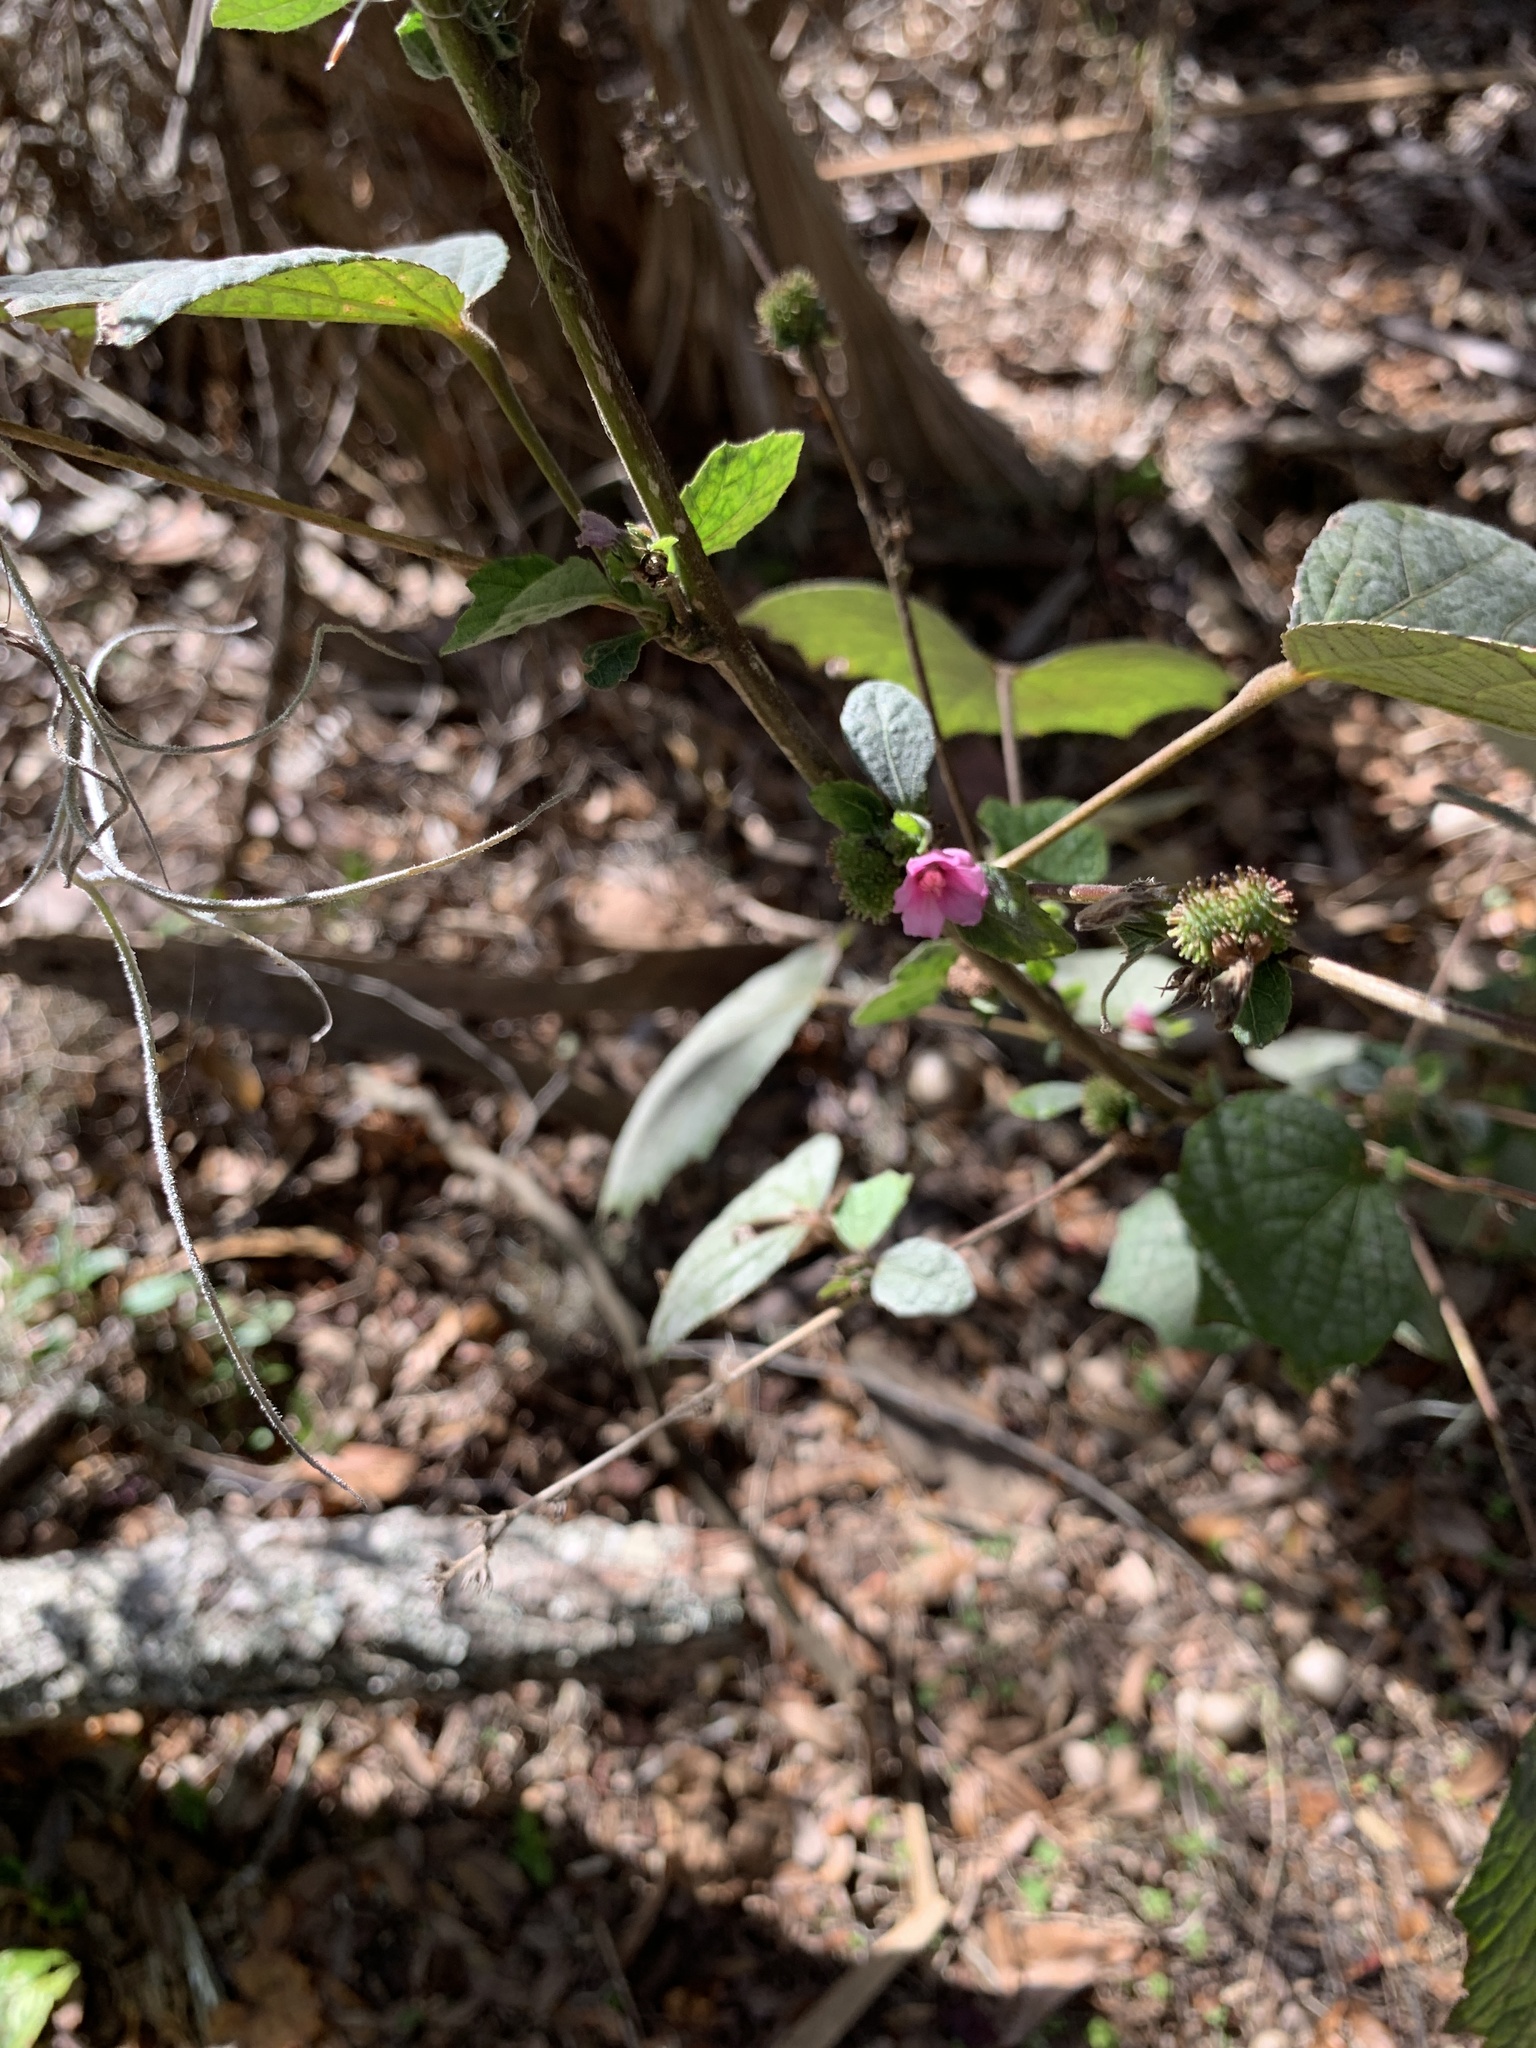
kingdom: Plantae
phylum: Tracheophyta
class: Magnoliopsida
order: Malvales
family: Malvaceae
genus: Urena
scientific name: Urena lobata
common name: Caesarweed
